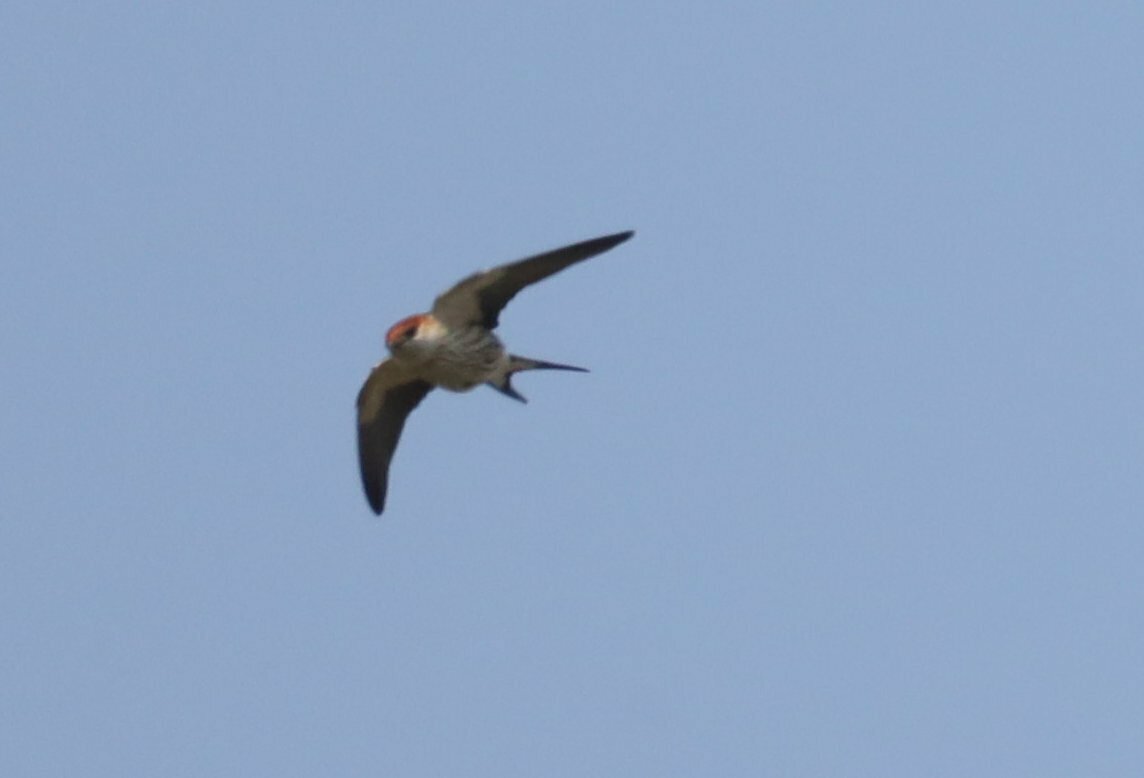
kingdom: Animalia
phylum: Chordata
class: Aves
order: Passeriformes
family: Hirundinidae
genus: Cecropis
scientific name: Cecropis cucullata
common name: Greater striped-swallow
